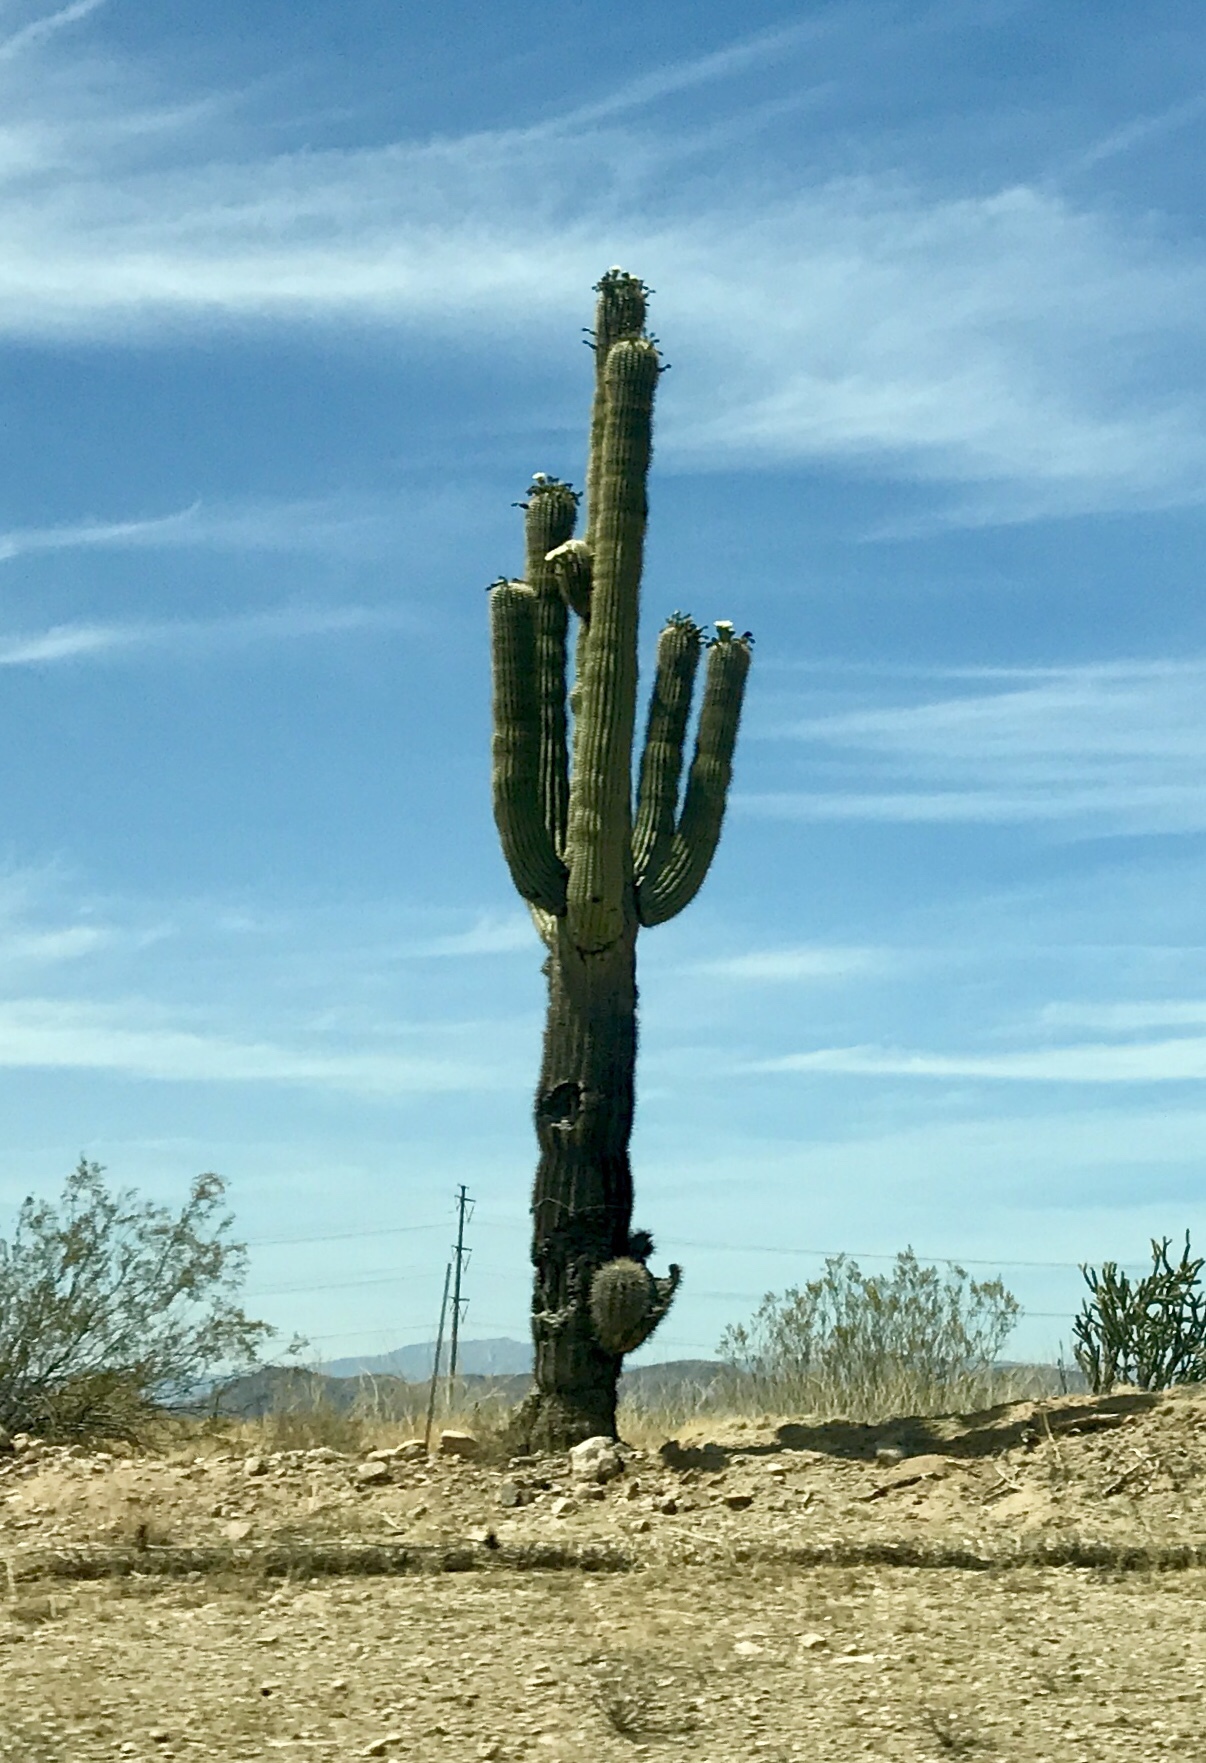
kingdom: Plantae
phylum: Tracheophyta
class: Magnoliopsida
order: Caryophyllales
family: Cactaceae
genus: Carnegiea
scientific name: Carnegiea gigantea
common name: Saguaro
